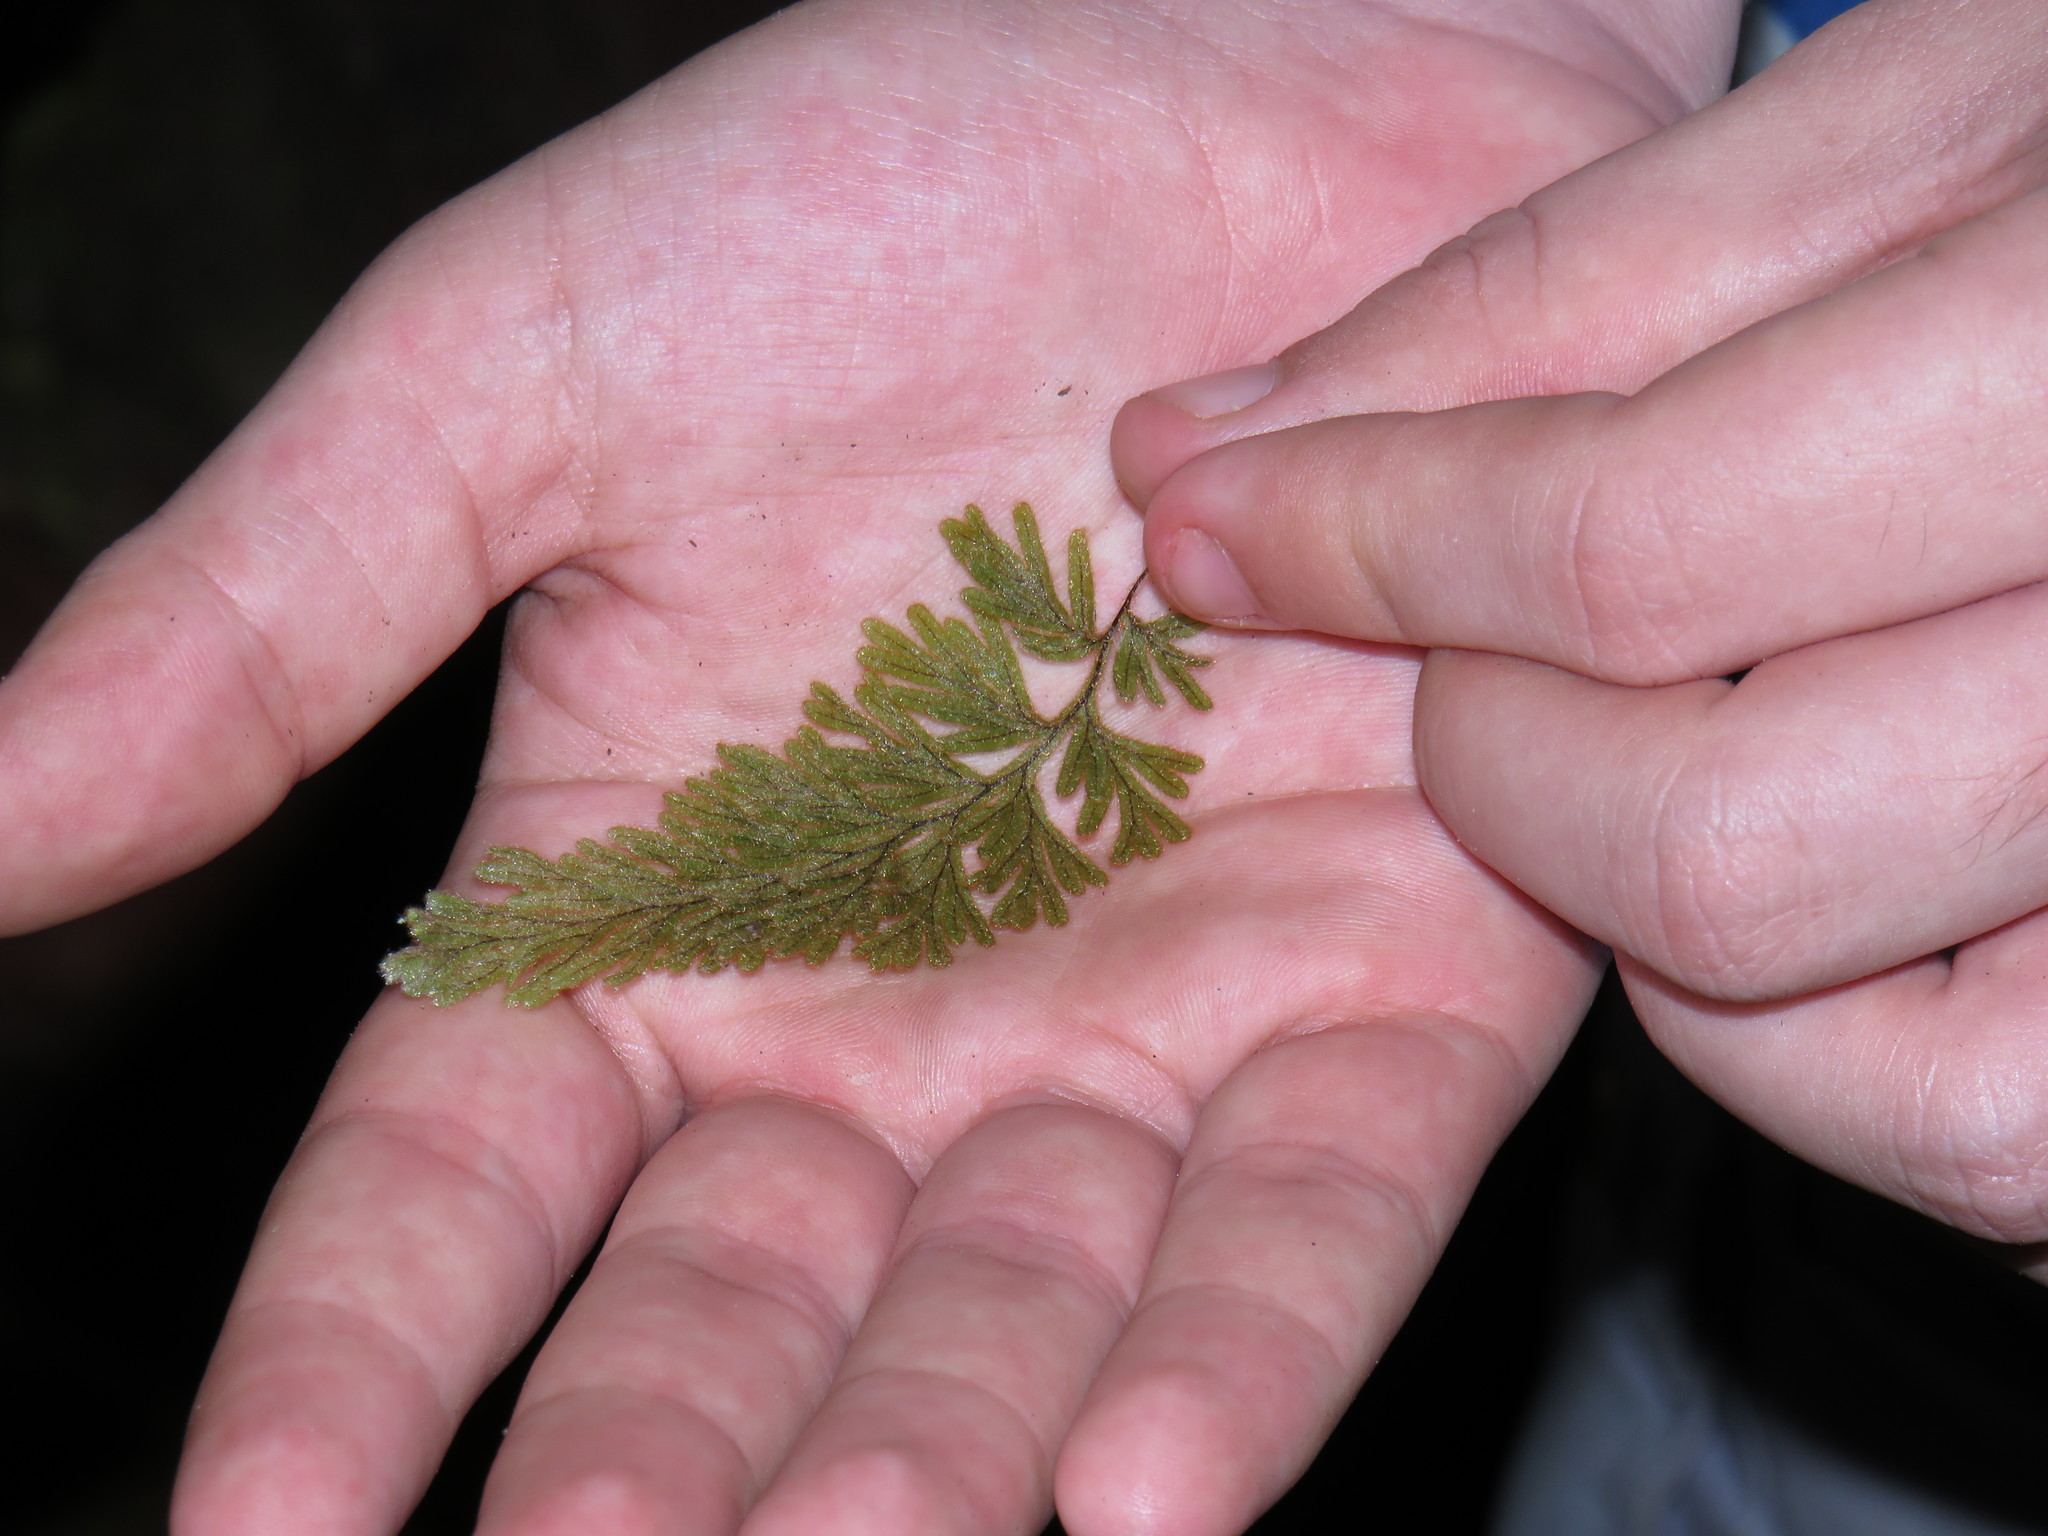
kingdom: Plantae
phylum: Tracheophyta
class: Polypodiopsida
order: Hymenophyllales
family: Hymenophyllaceae
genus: Hymenophyllum
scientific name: Hymenophyllum aeruginosum
